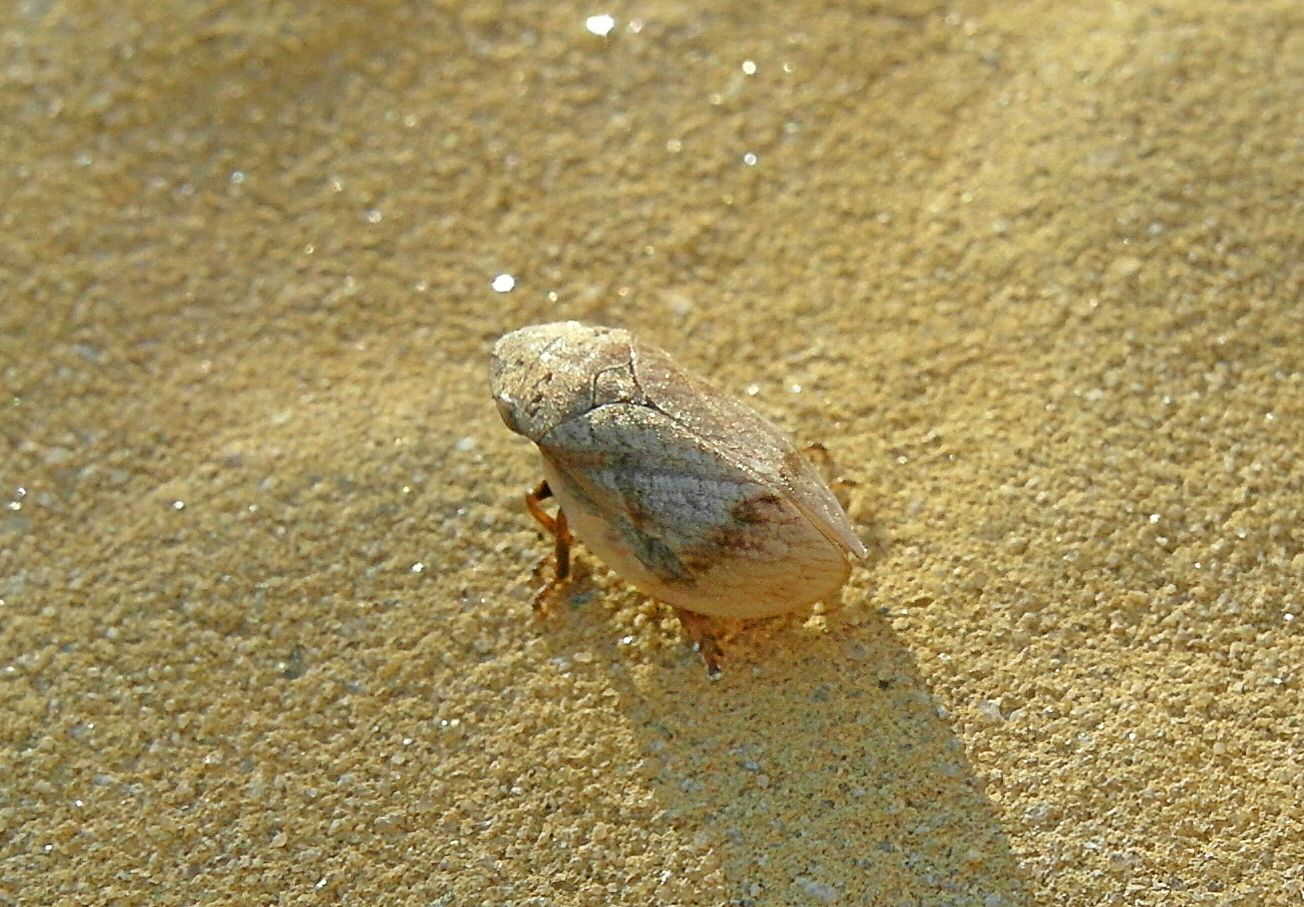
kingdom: Animalia
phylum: Arthropoda
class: Insecta
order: Hemiptera
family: Aphrophoridae
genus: Lepyronia
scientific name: Lepyronia coleoptrata
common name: Leafhopper
